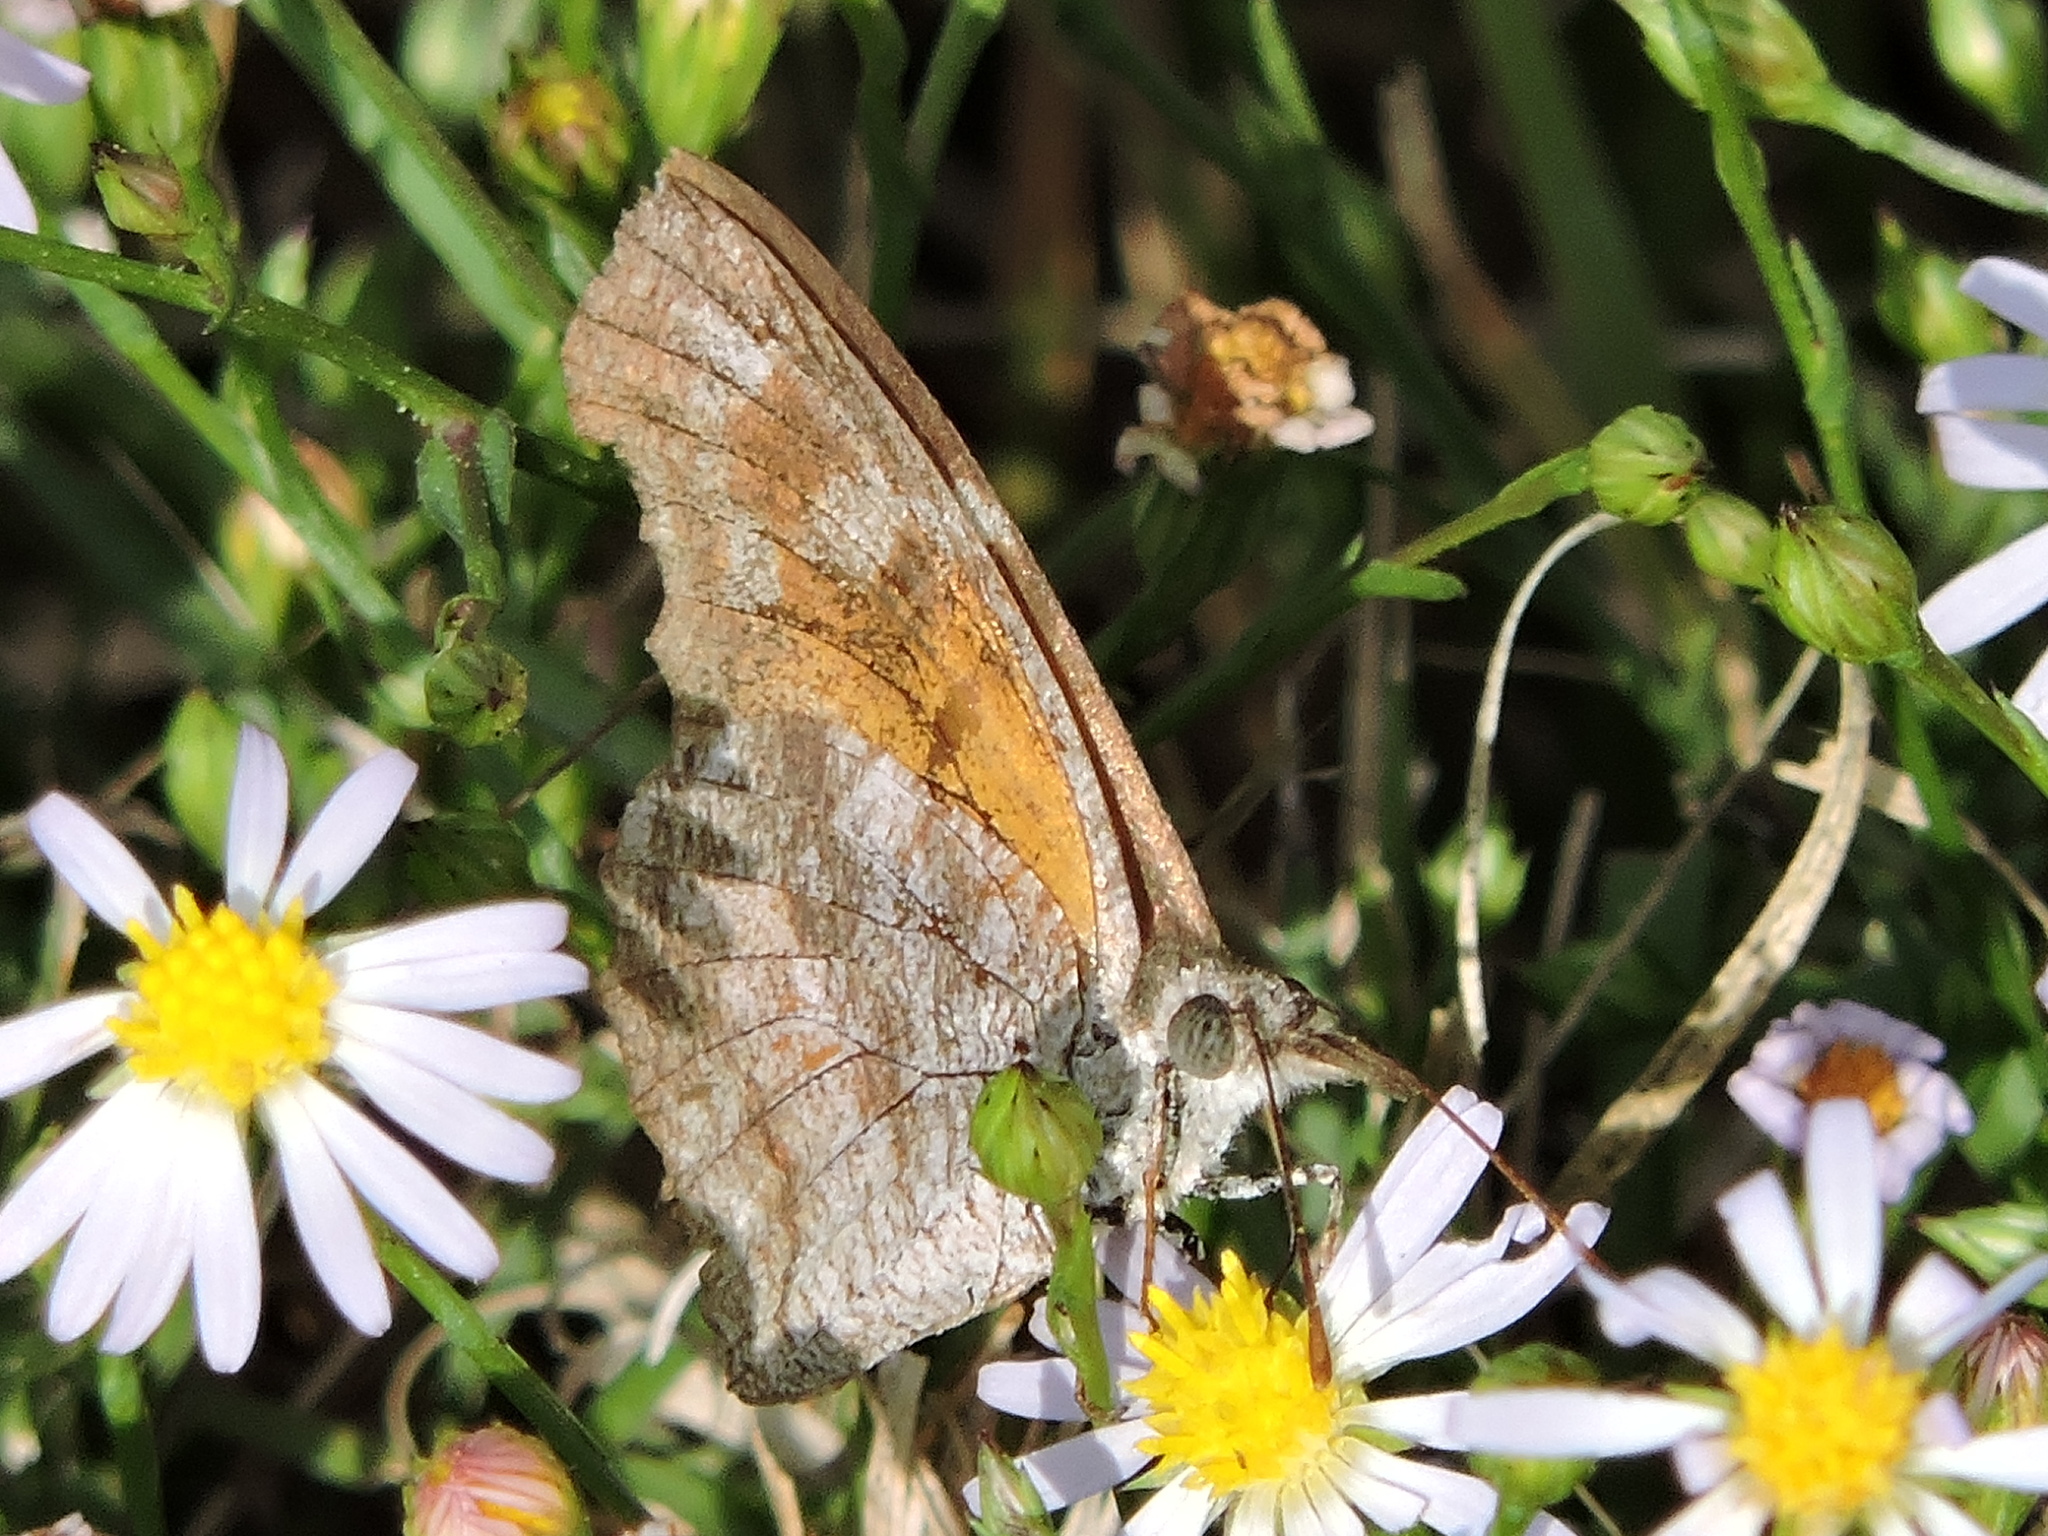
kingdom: Animalia
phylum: Arthropoda
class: Insecta
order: Lepidoptera
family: Nymphalidae
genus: Libytheana
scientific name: Libytheana carinenta
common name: American snout
